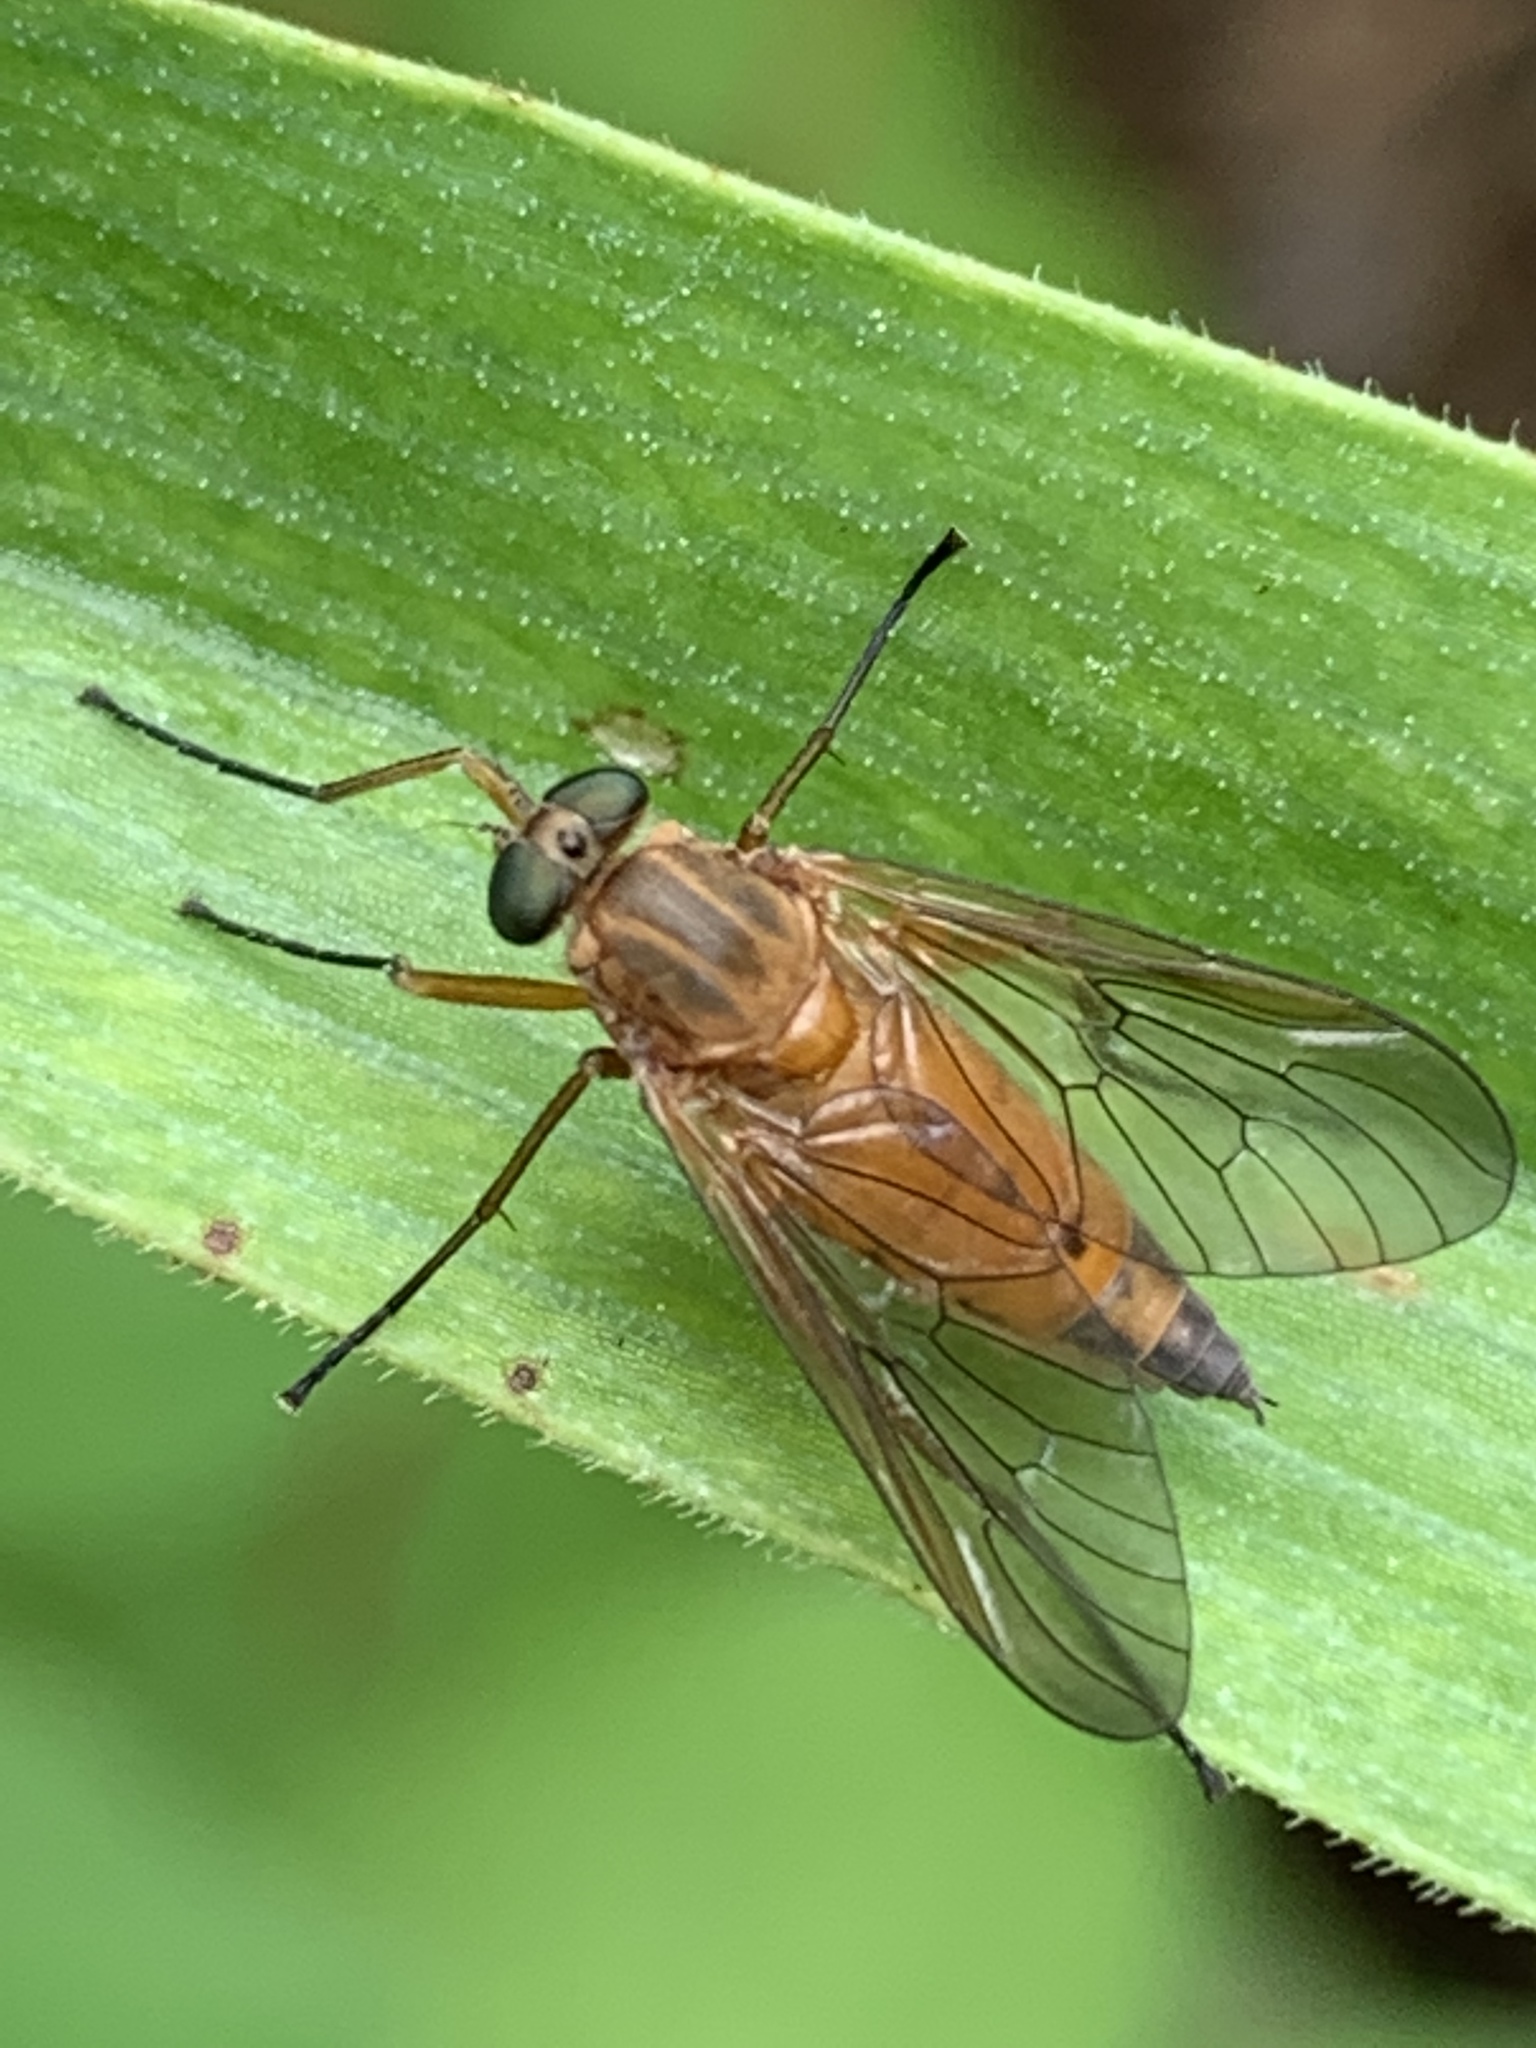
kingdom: Animalia
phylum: Arthropoda
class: Insecta
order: Diptera
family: Rhagionidae
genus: Rhagio
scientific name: Rhagio tringaria
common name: Marsh snipefly
